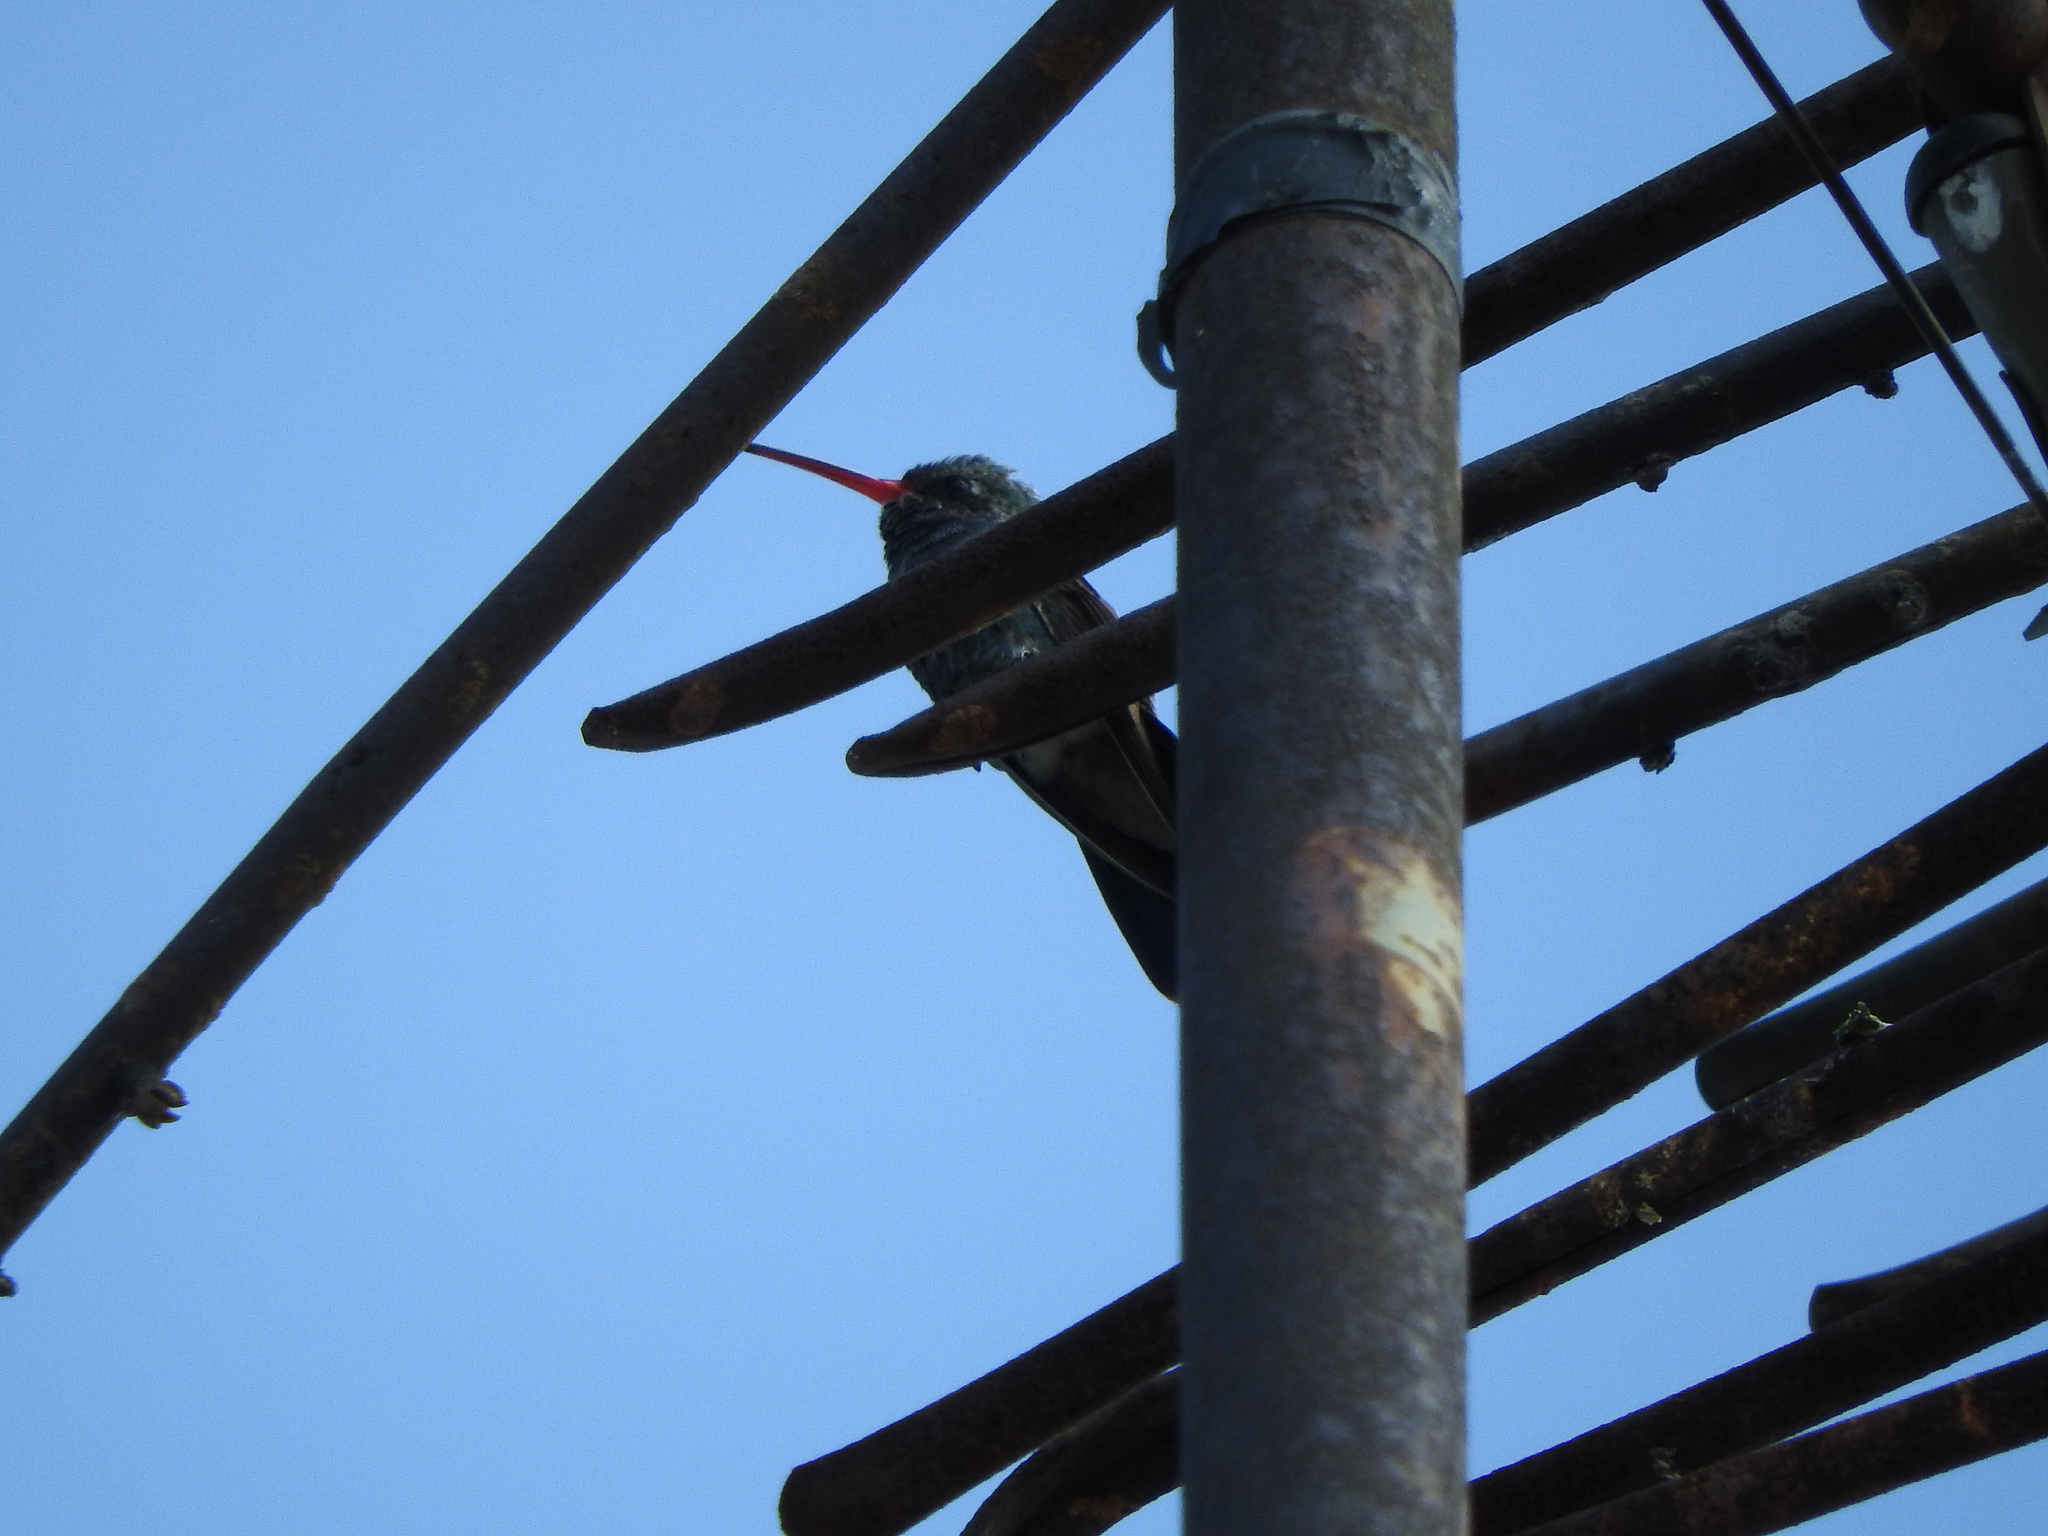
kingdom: Animalia
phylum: Chordata
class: Aves
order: Apodiformes
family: Trochilidae
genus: Cynanthus
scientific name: Cynanthus latirostris
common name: Broad-billed hummingbird
